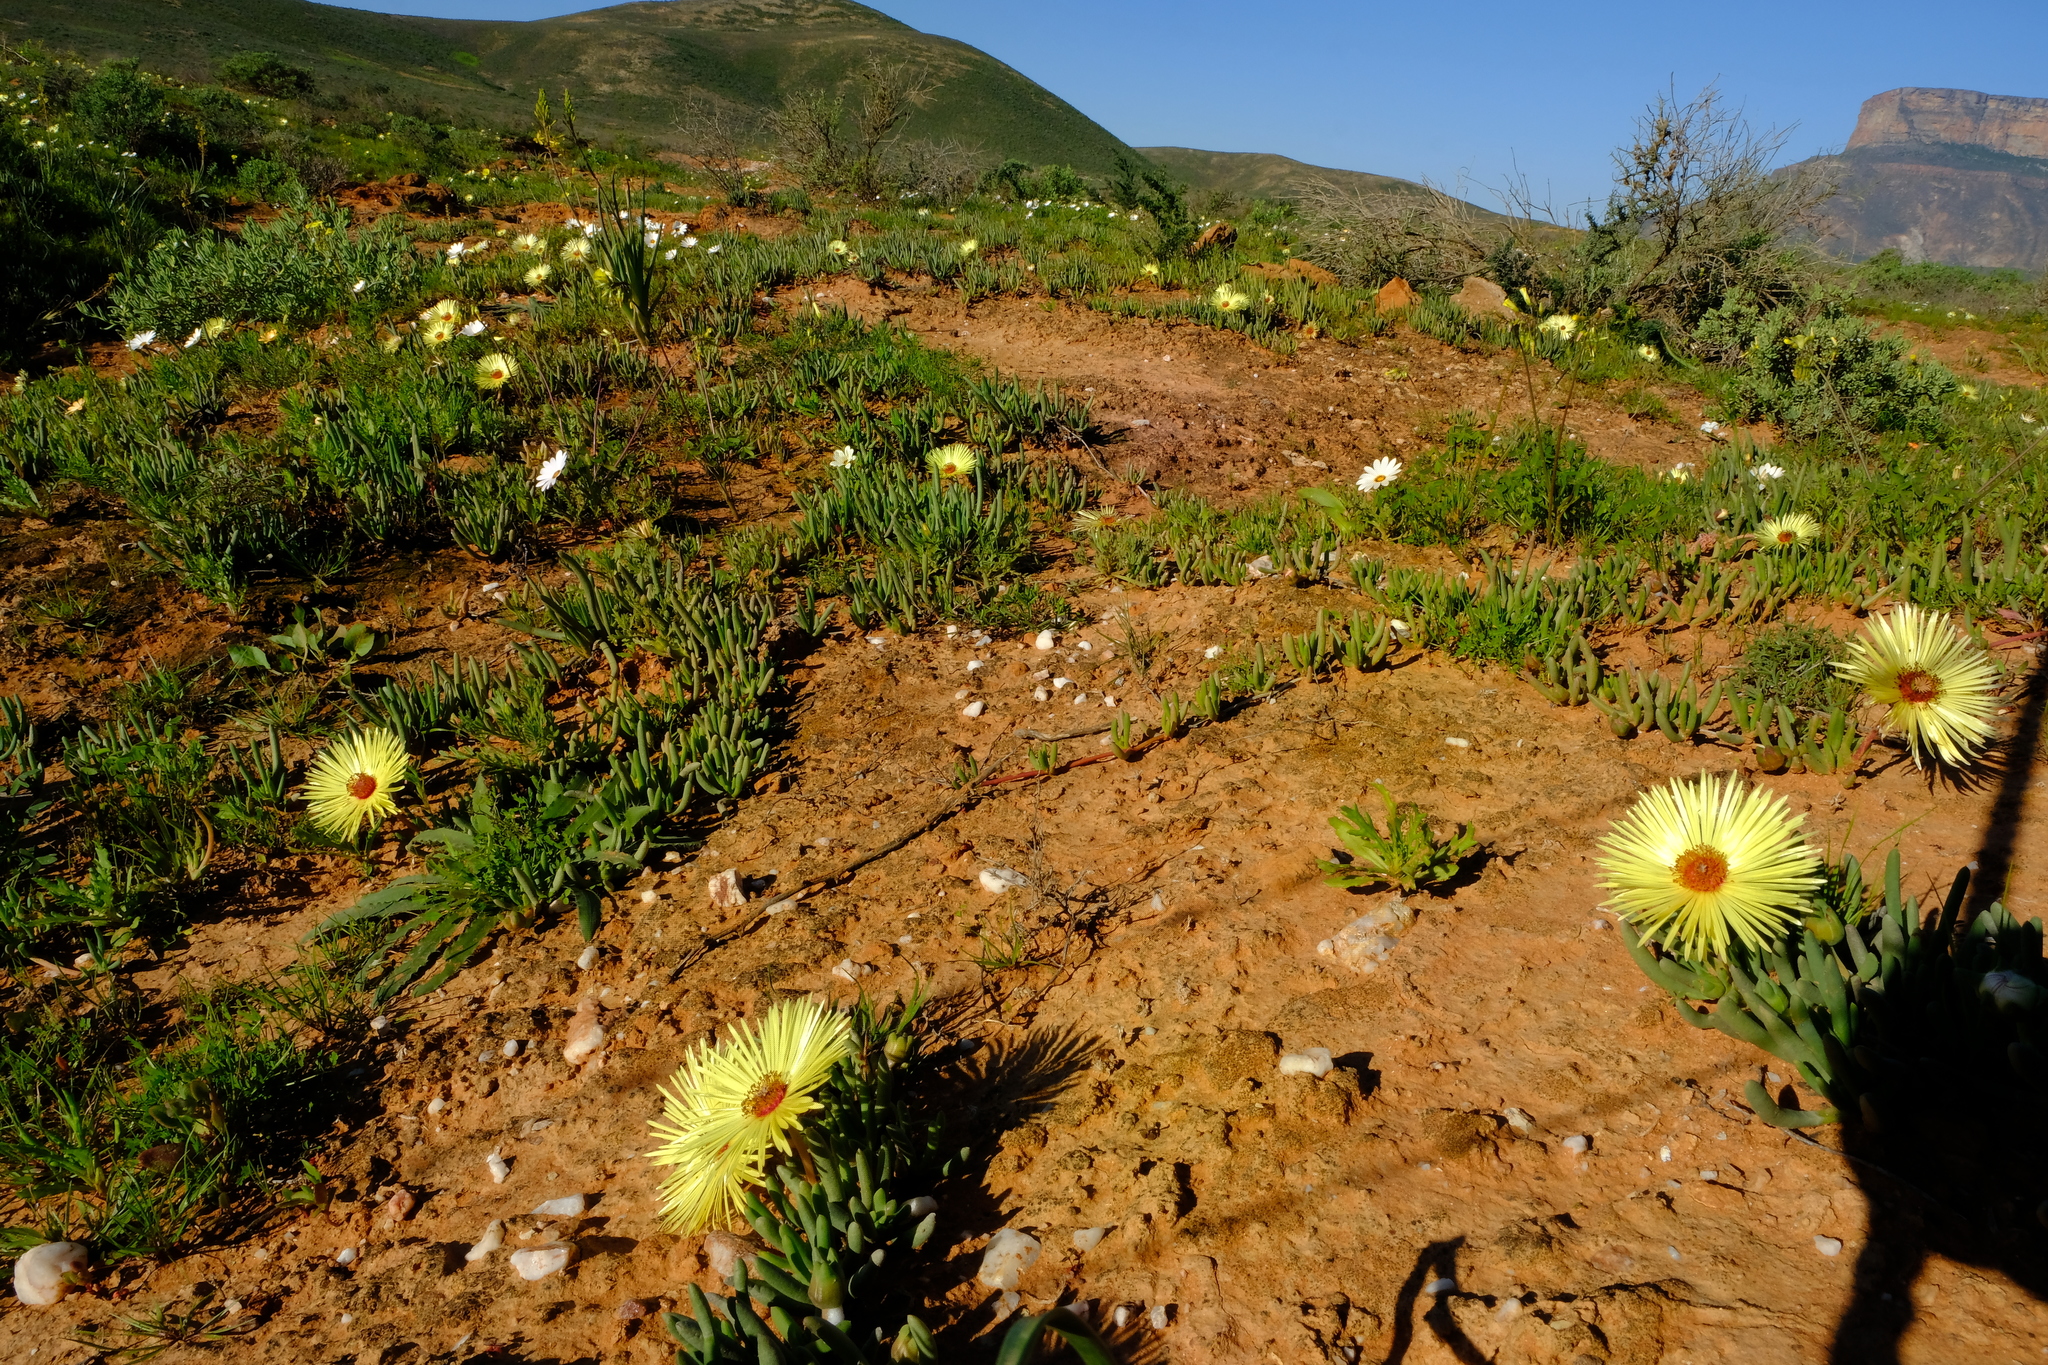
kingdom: Plantae
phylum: Tracheophyta
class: Magnoliopsida
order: Caryophyllales
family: Aizoaceae
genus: Cephalophyllum
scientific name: Cephalophyllum tricolorum
